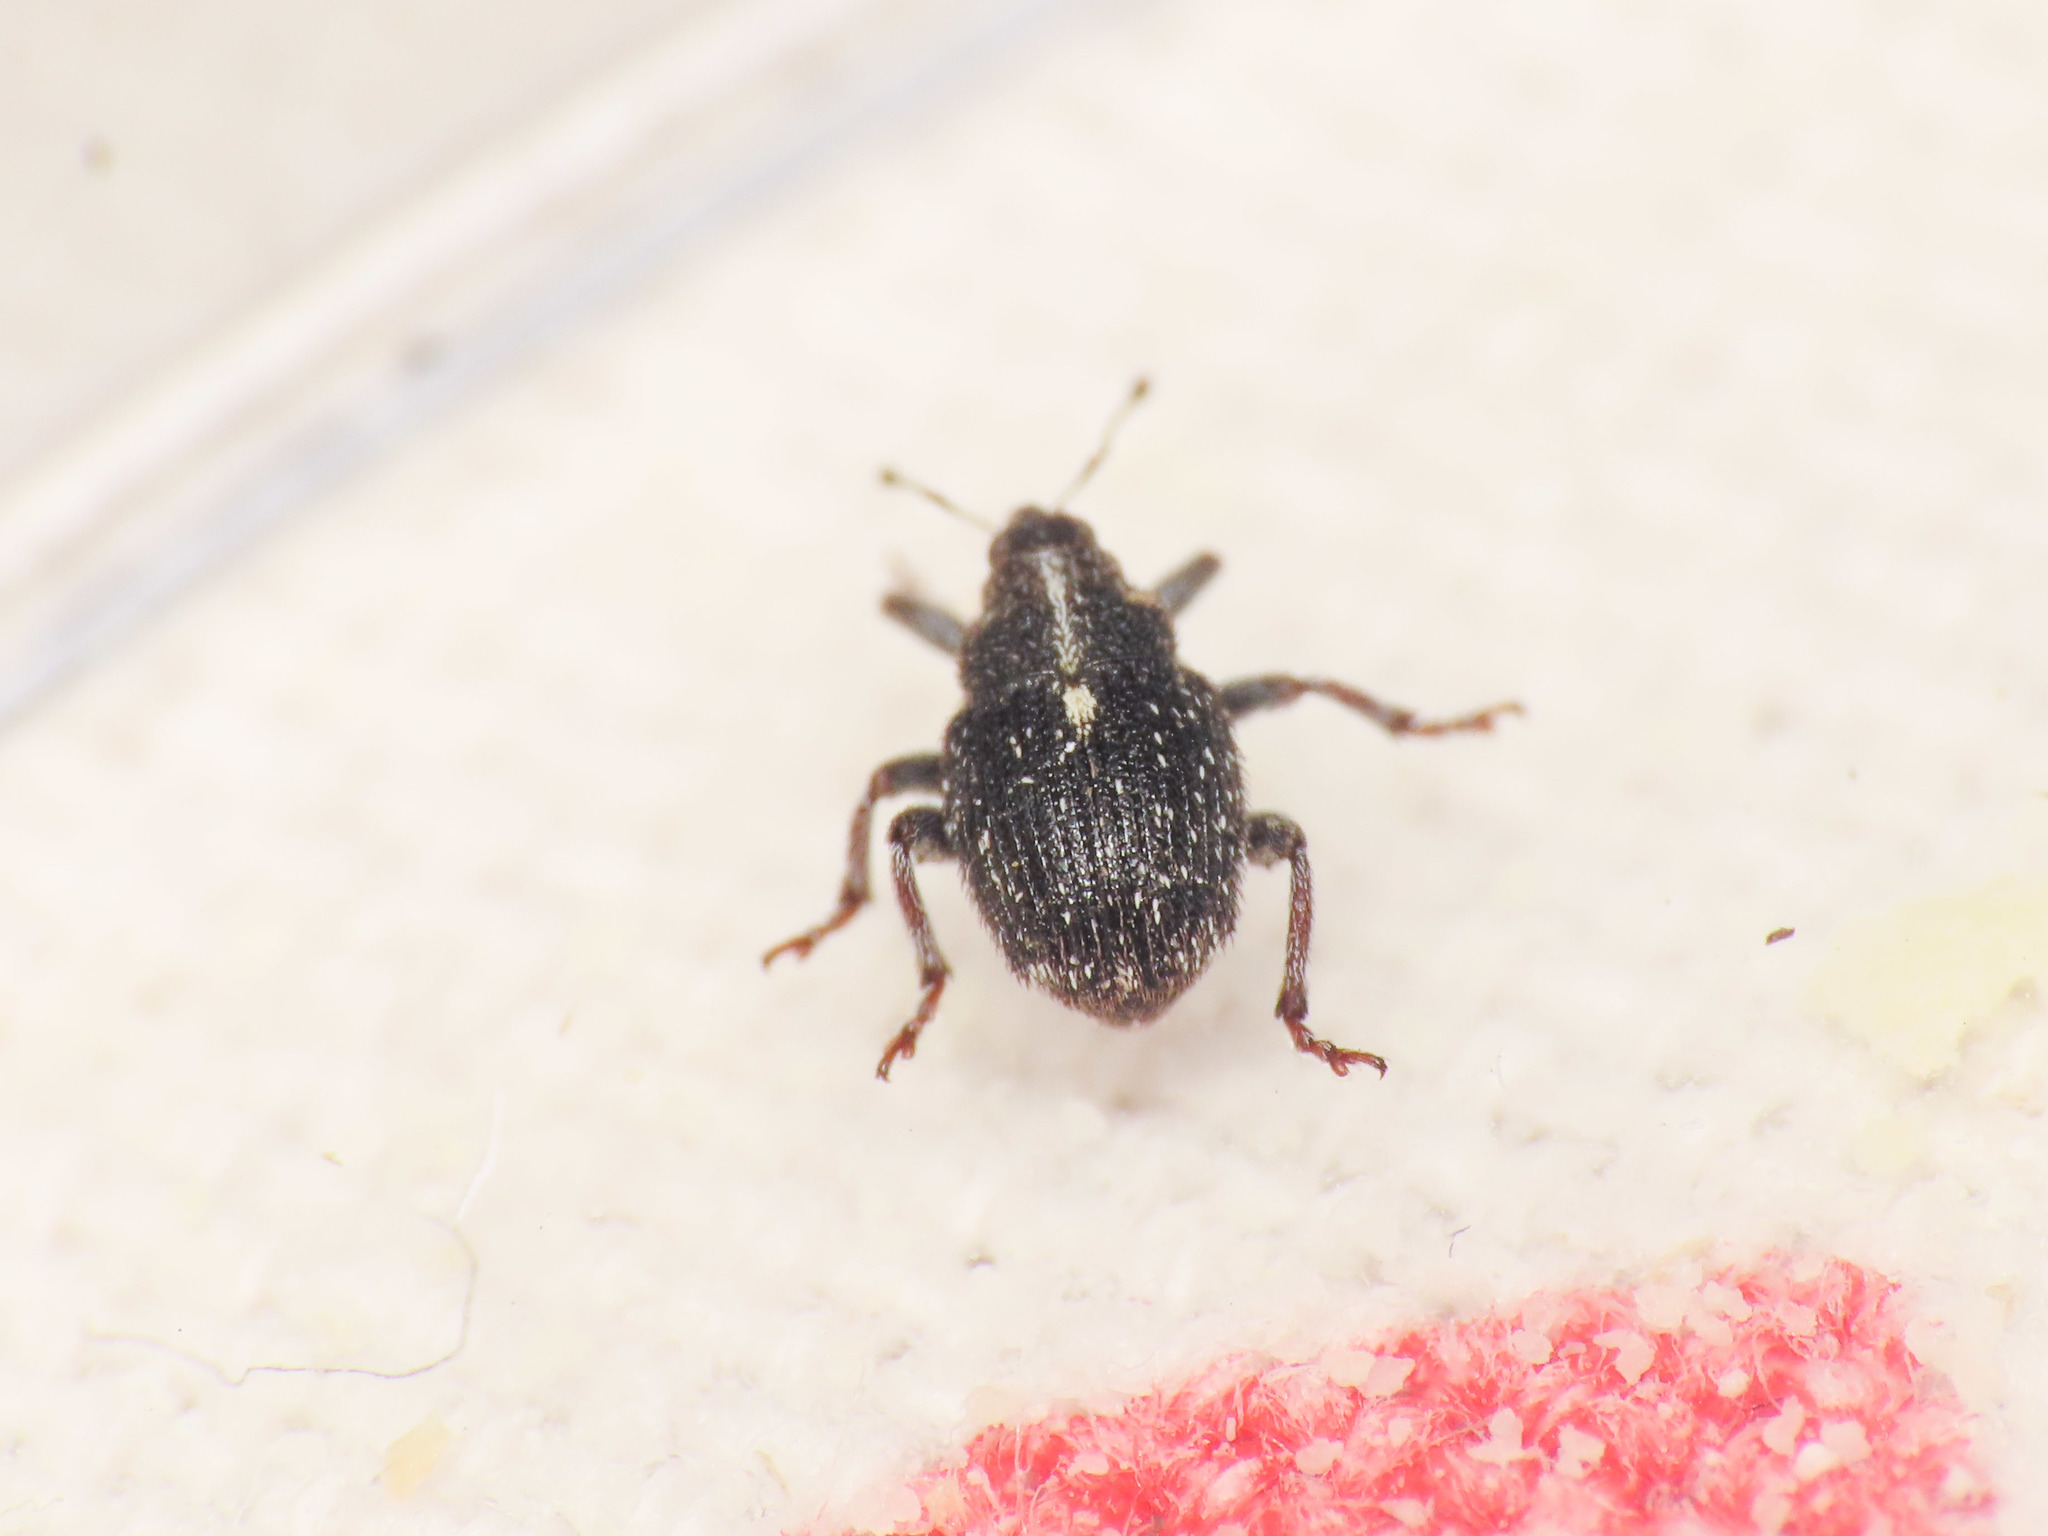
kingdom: Animalia
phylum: Arthropoda
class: Insecta
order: Coleoptera
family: Curculionidae
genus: Glocianus
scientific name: Glocianus pilosellus
